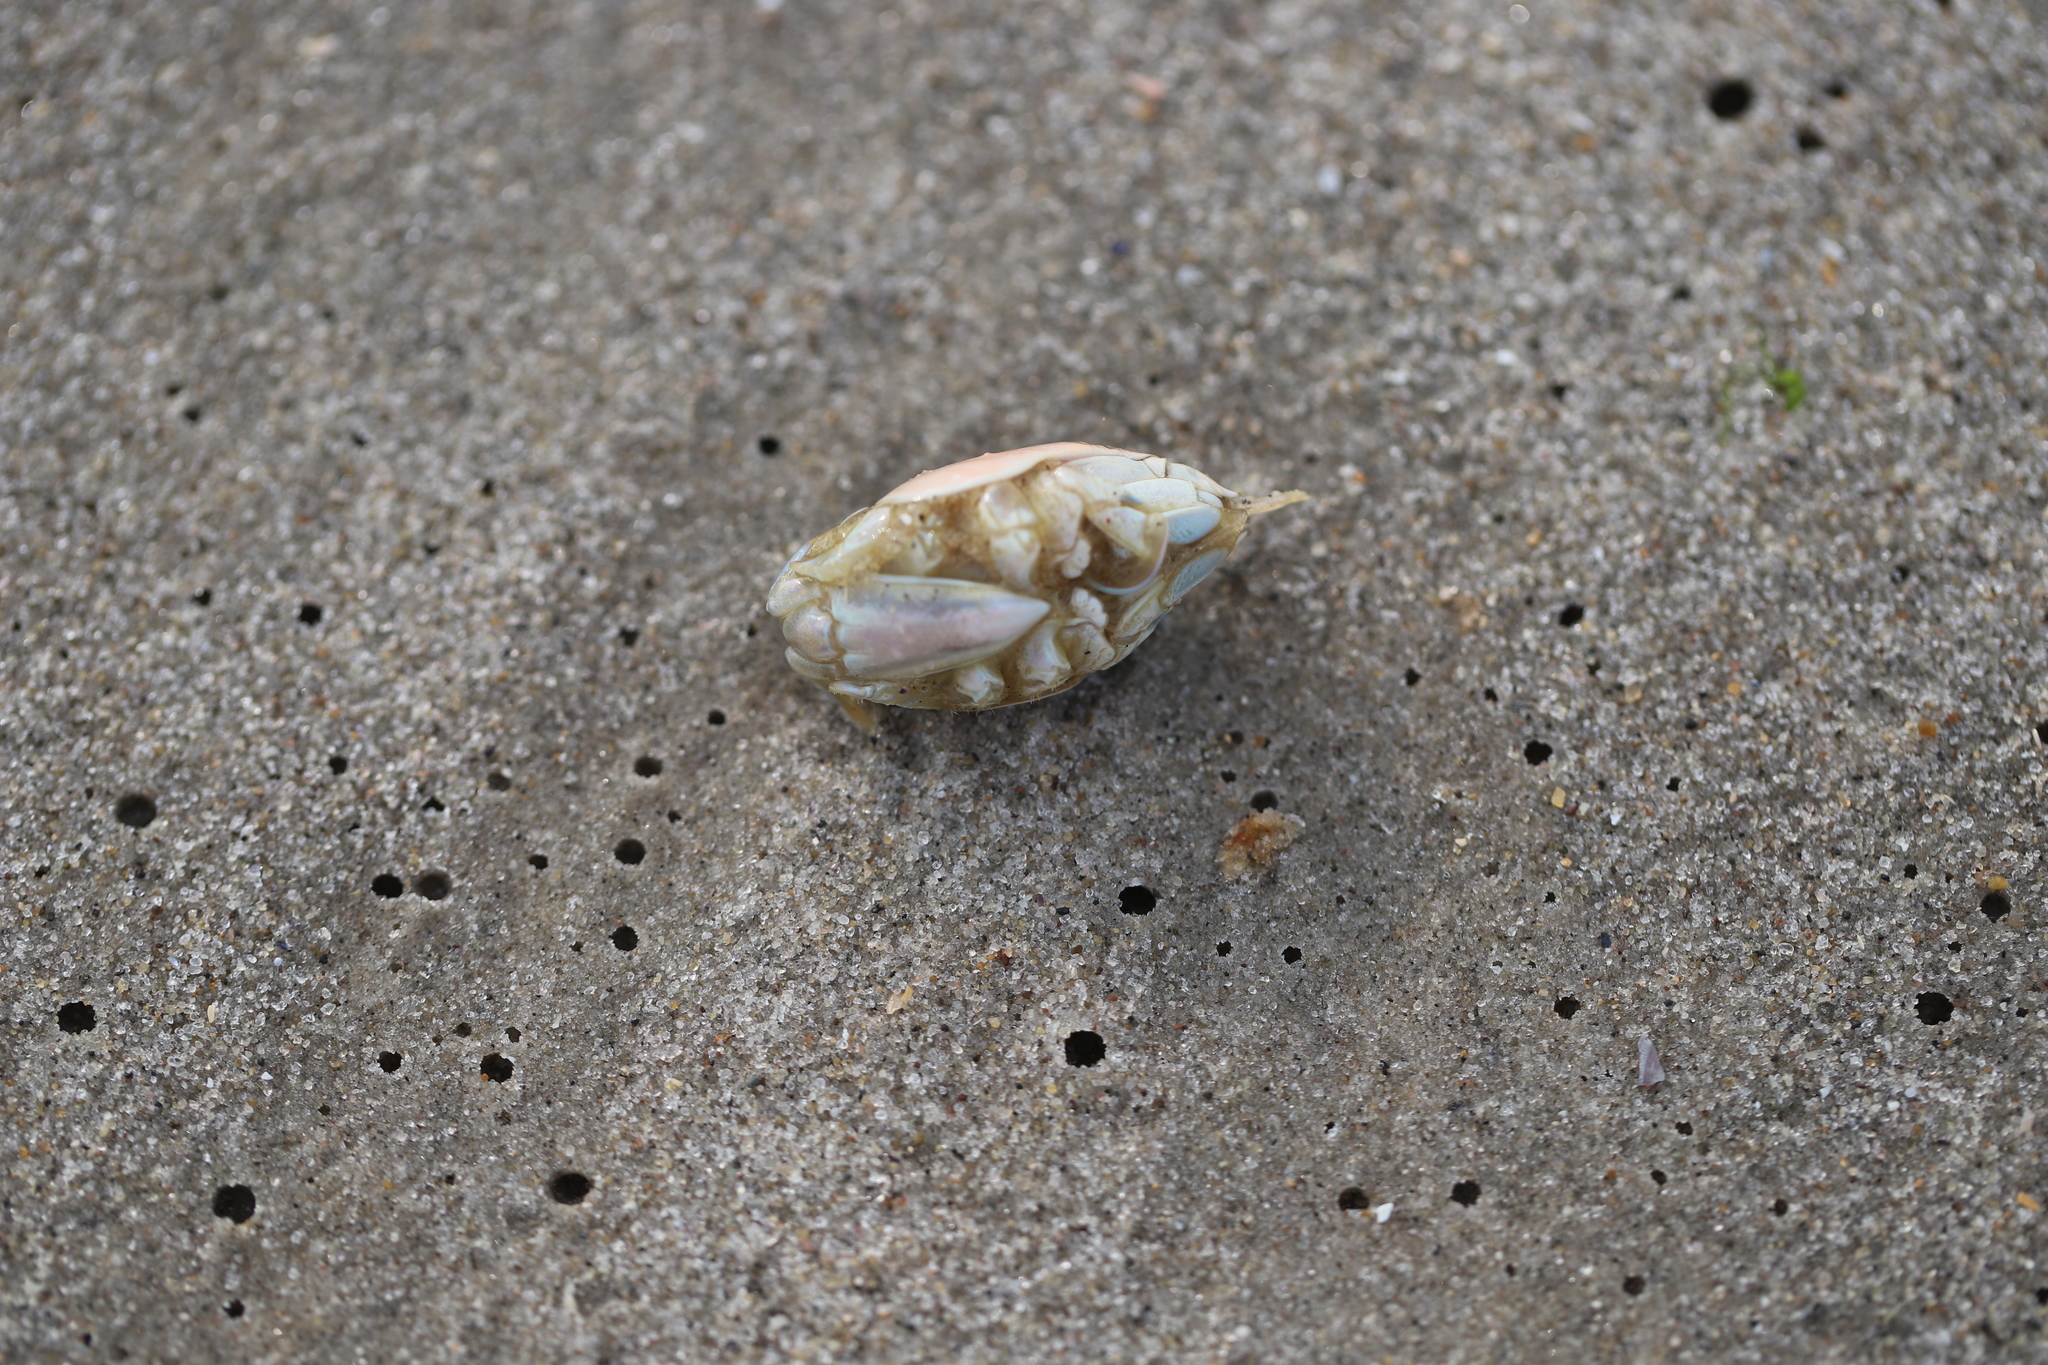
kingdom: Animalia
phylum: Arthropoda
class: Malacostraca
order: Decapoda
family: Hippidae
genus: Emerita
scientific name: Emerita talpoida
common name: Atlantic sand crab
